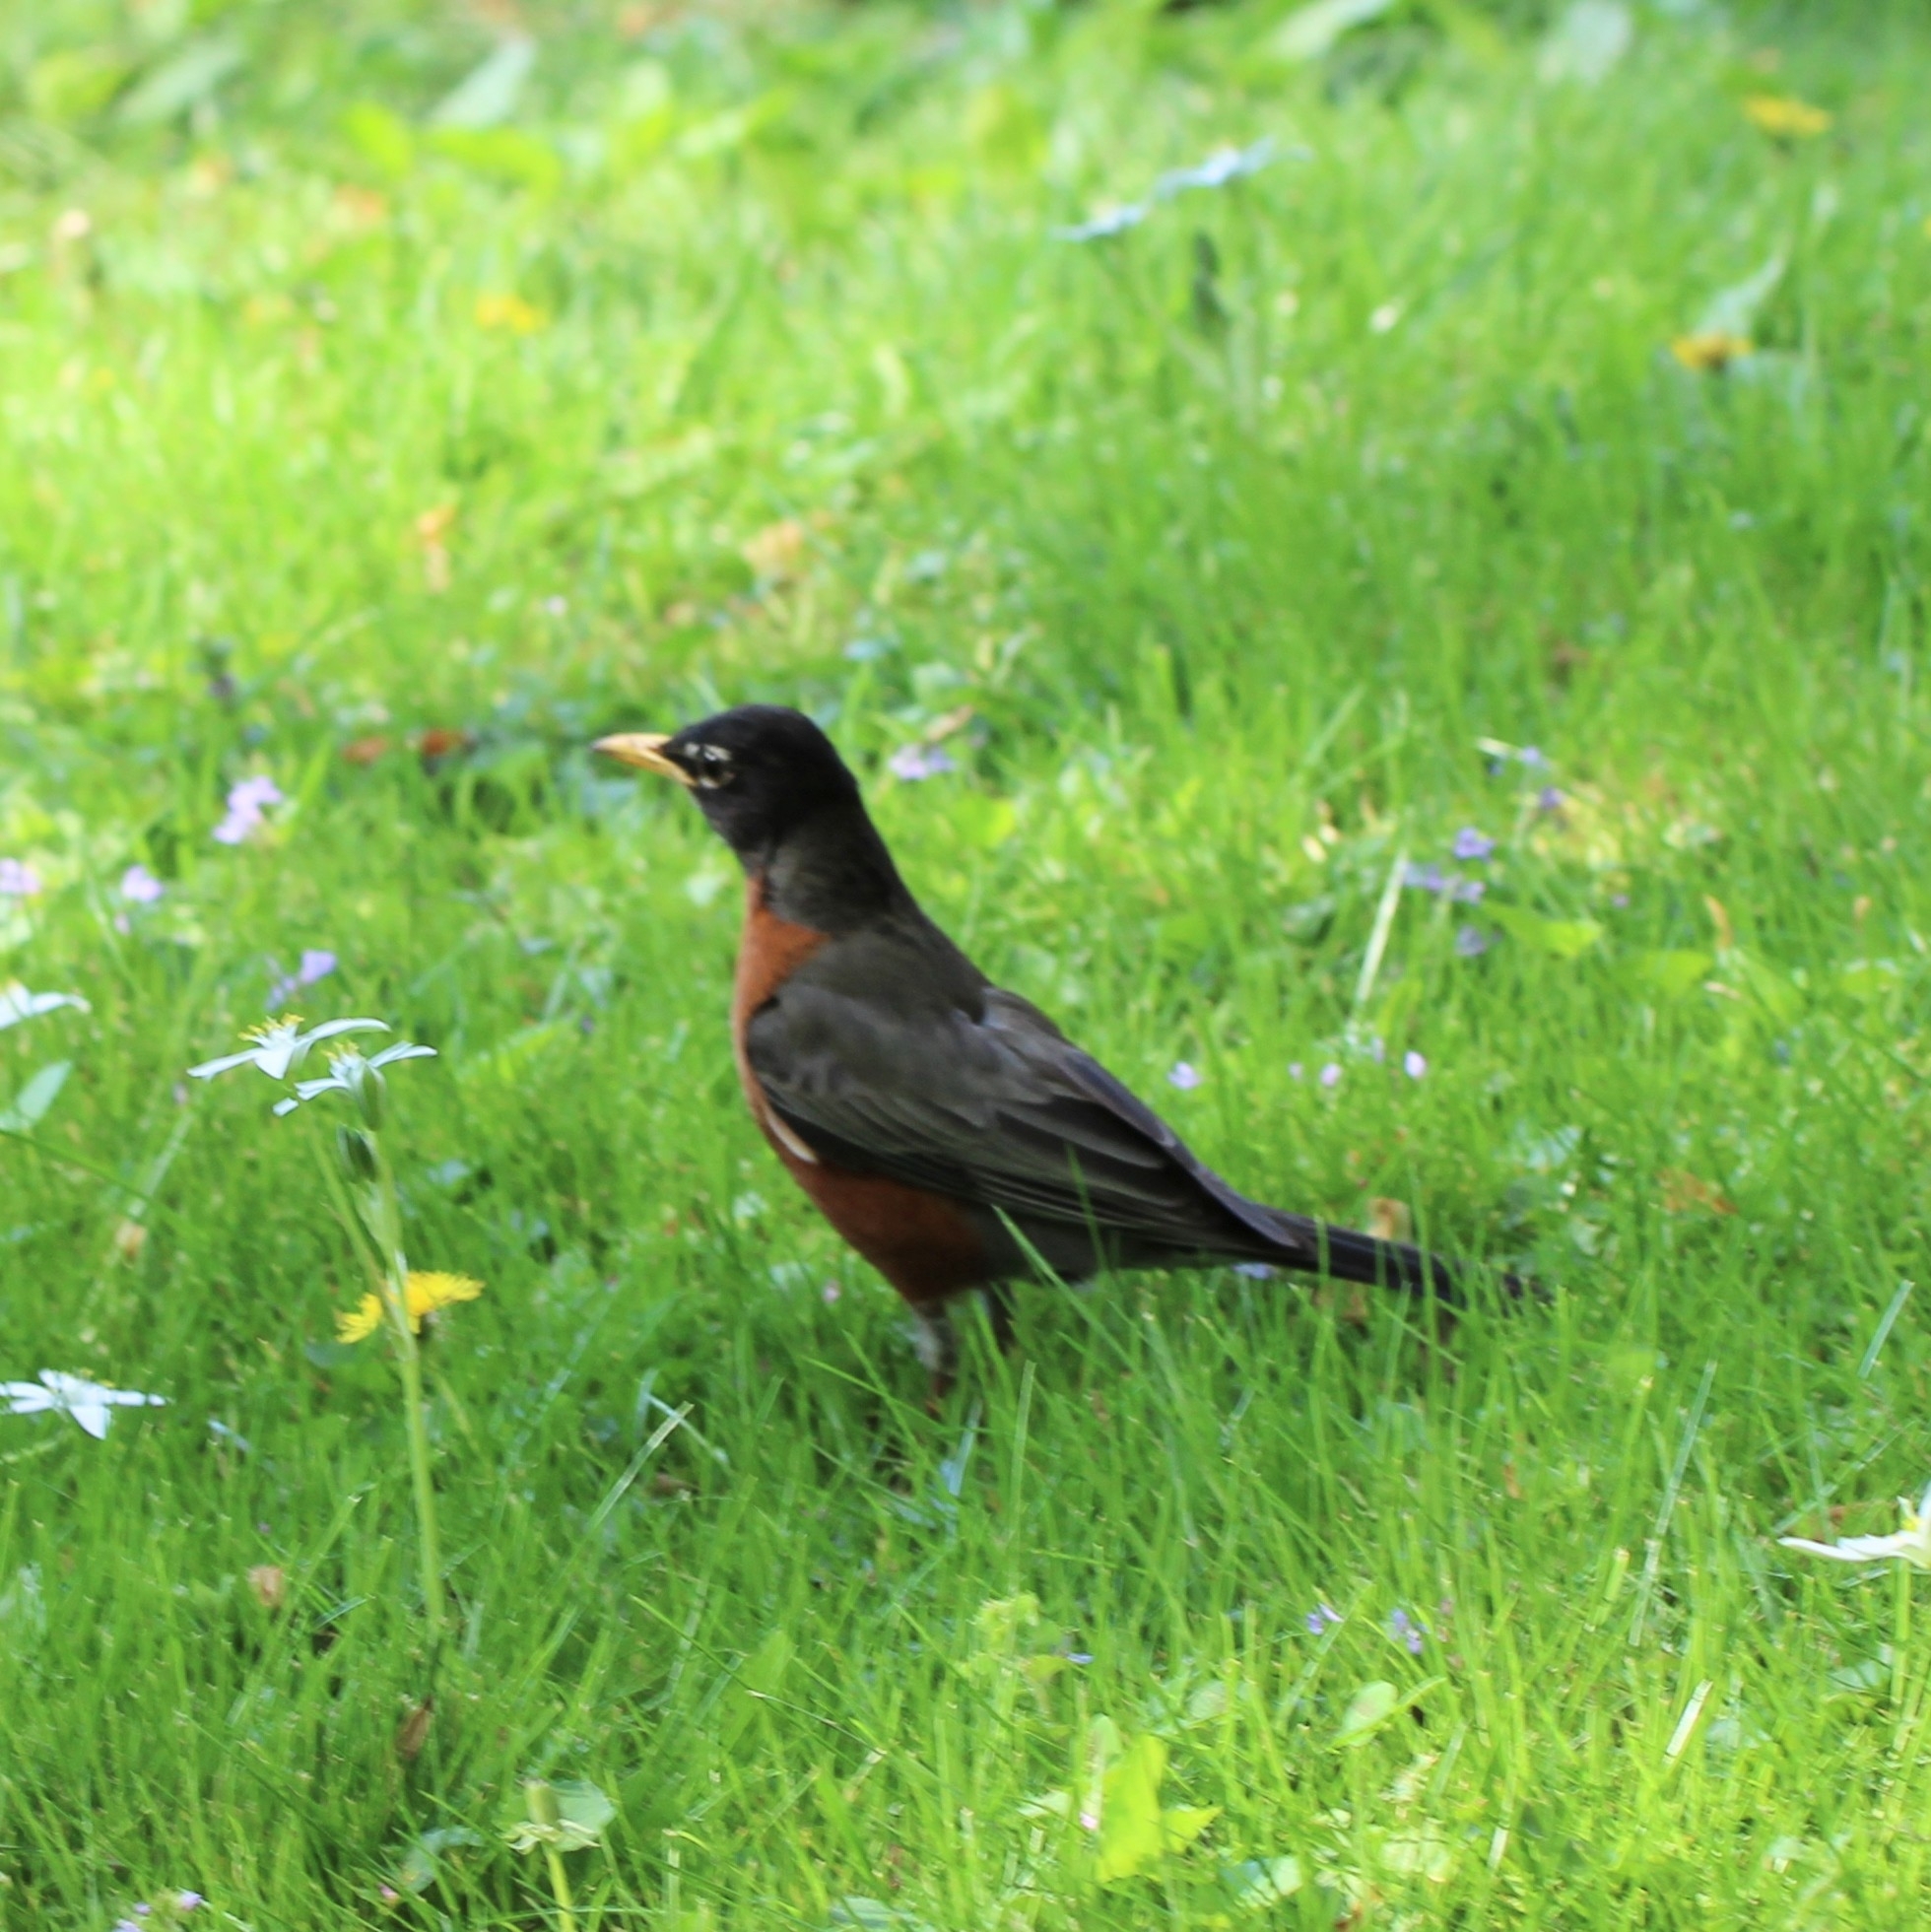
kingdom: Animalia
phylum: Chordata
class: Aves
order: Passeriformes
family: Turdidae
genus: Turdus
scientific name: Turdus migratorius
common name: American robin
